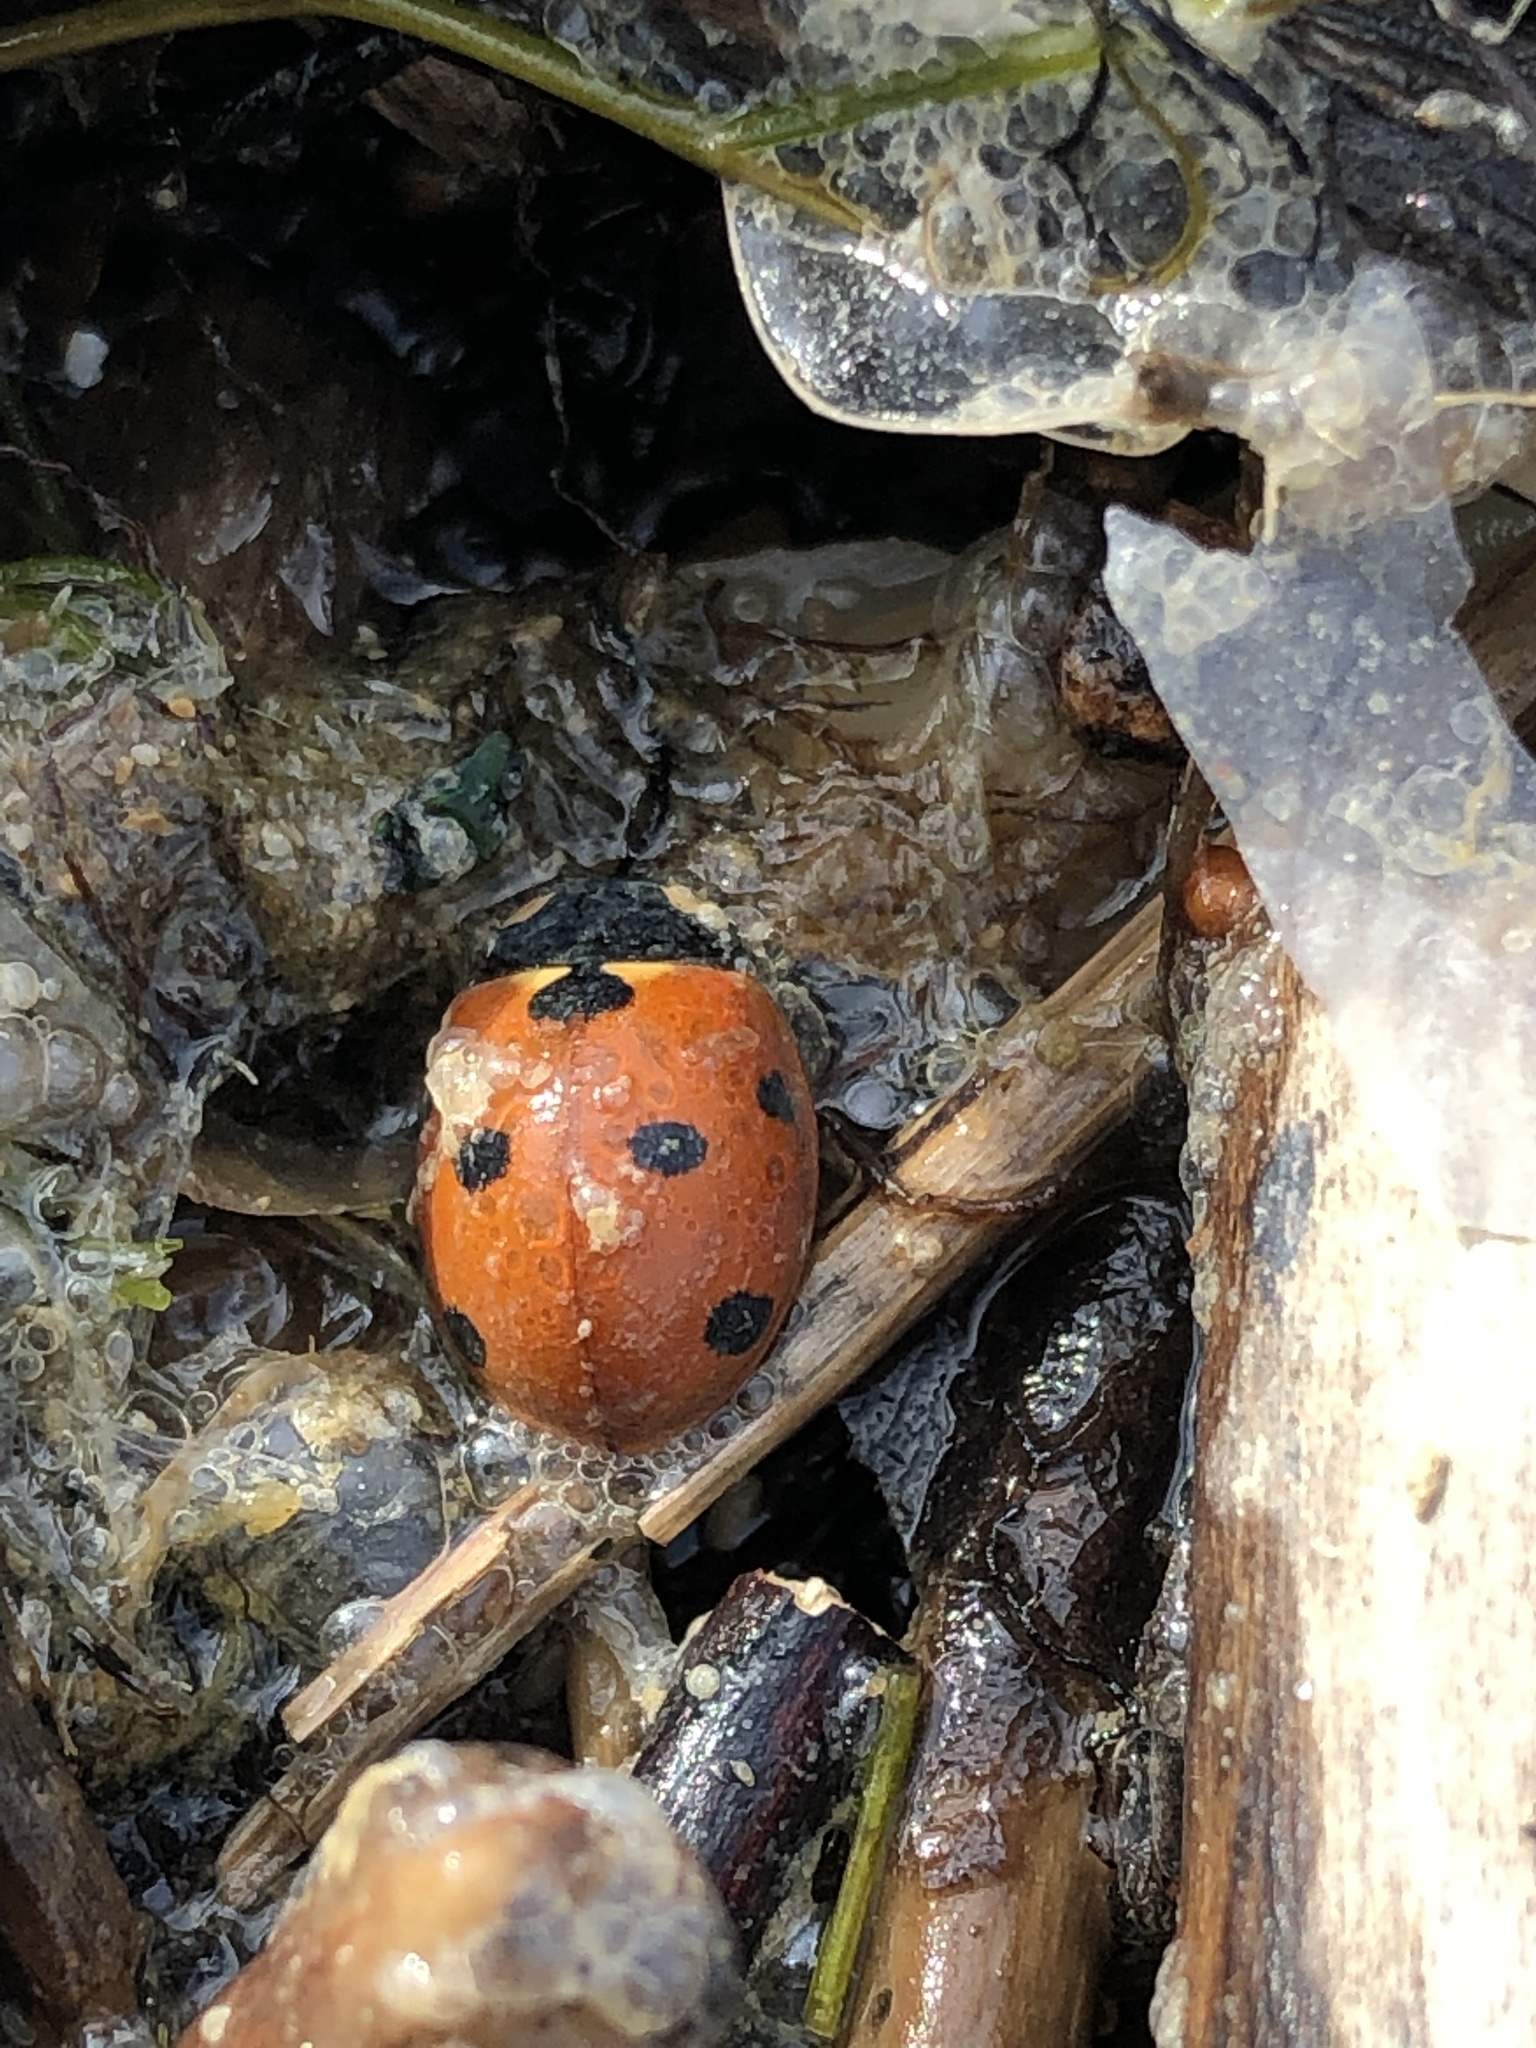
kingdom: Animalia
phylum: Arthropoda
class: Insecta
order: Coleoptera
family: Coccinellidae
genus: Coccinella
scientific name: Coccinella septempunctata
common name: Sevenspotted lady beetle
